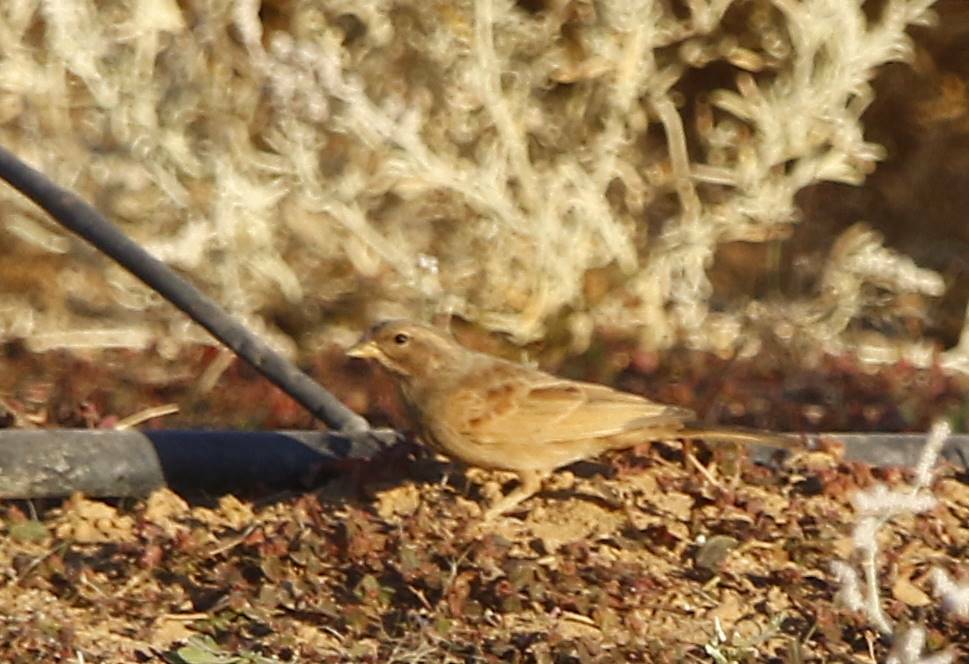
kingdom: Animalia
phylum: Chordata
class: Aves
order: Passeriformes
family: Emberizidae
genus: Emberiza
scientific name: Emberiza sahari
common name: House bunting
